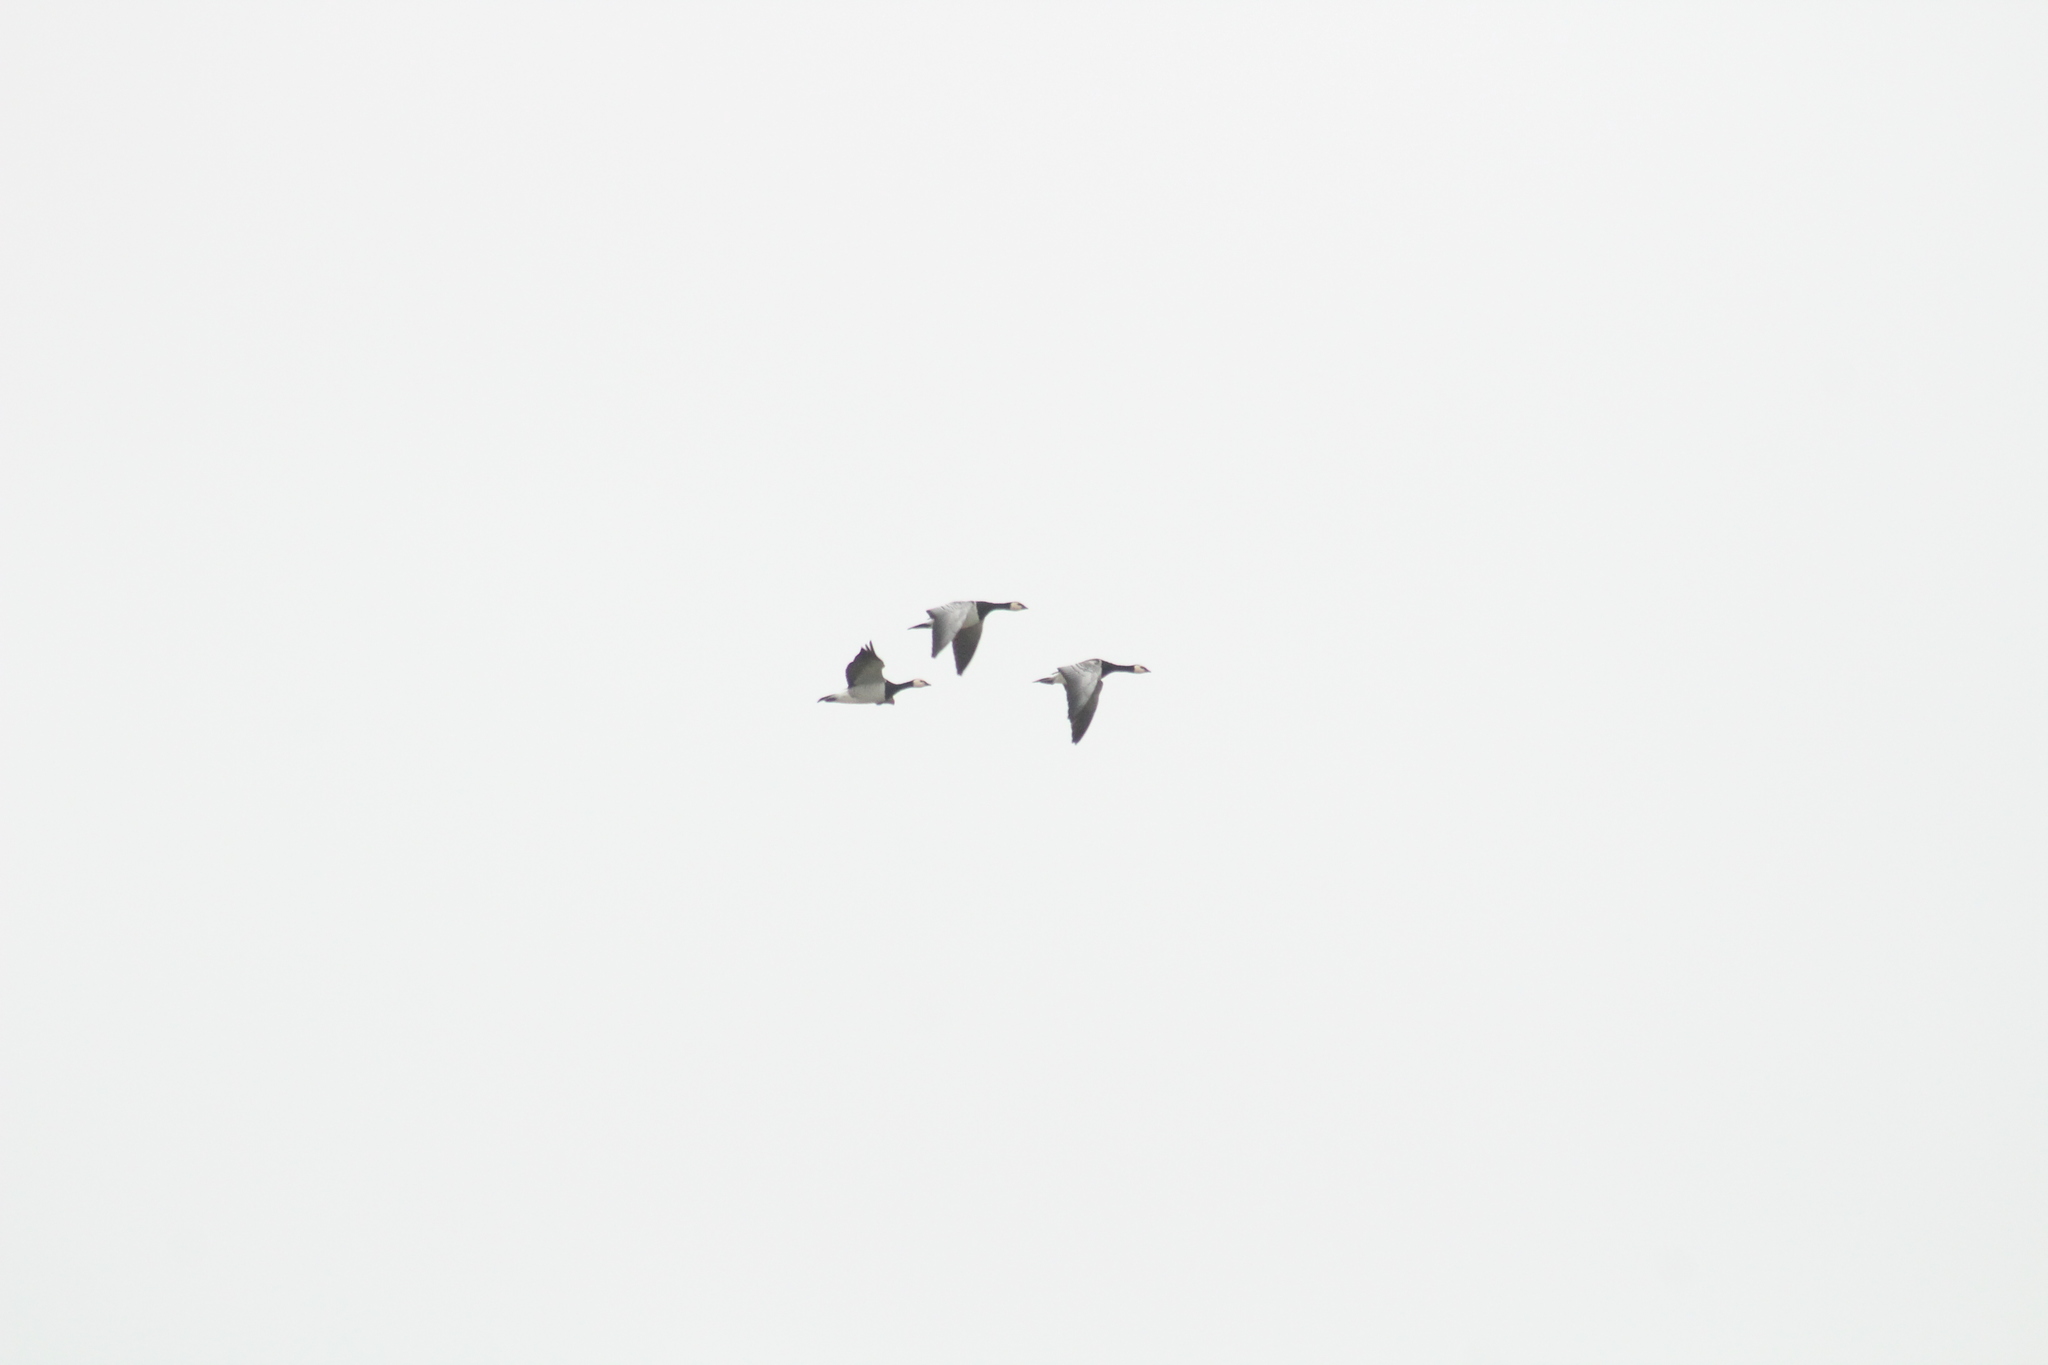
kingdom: Animalia
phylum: Chordata
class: Aves
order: Anseriformes
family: Anatidae
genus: Branta
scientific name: Branta leucopsis
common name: Barnacle goose
